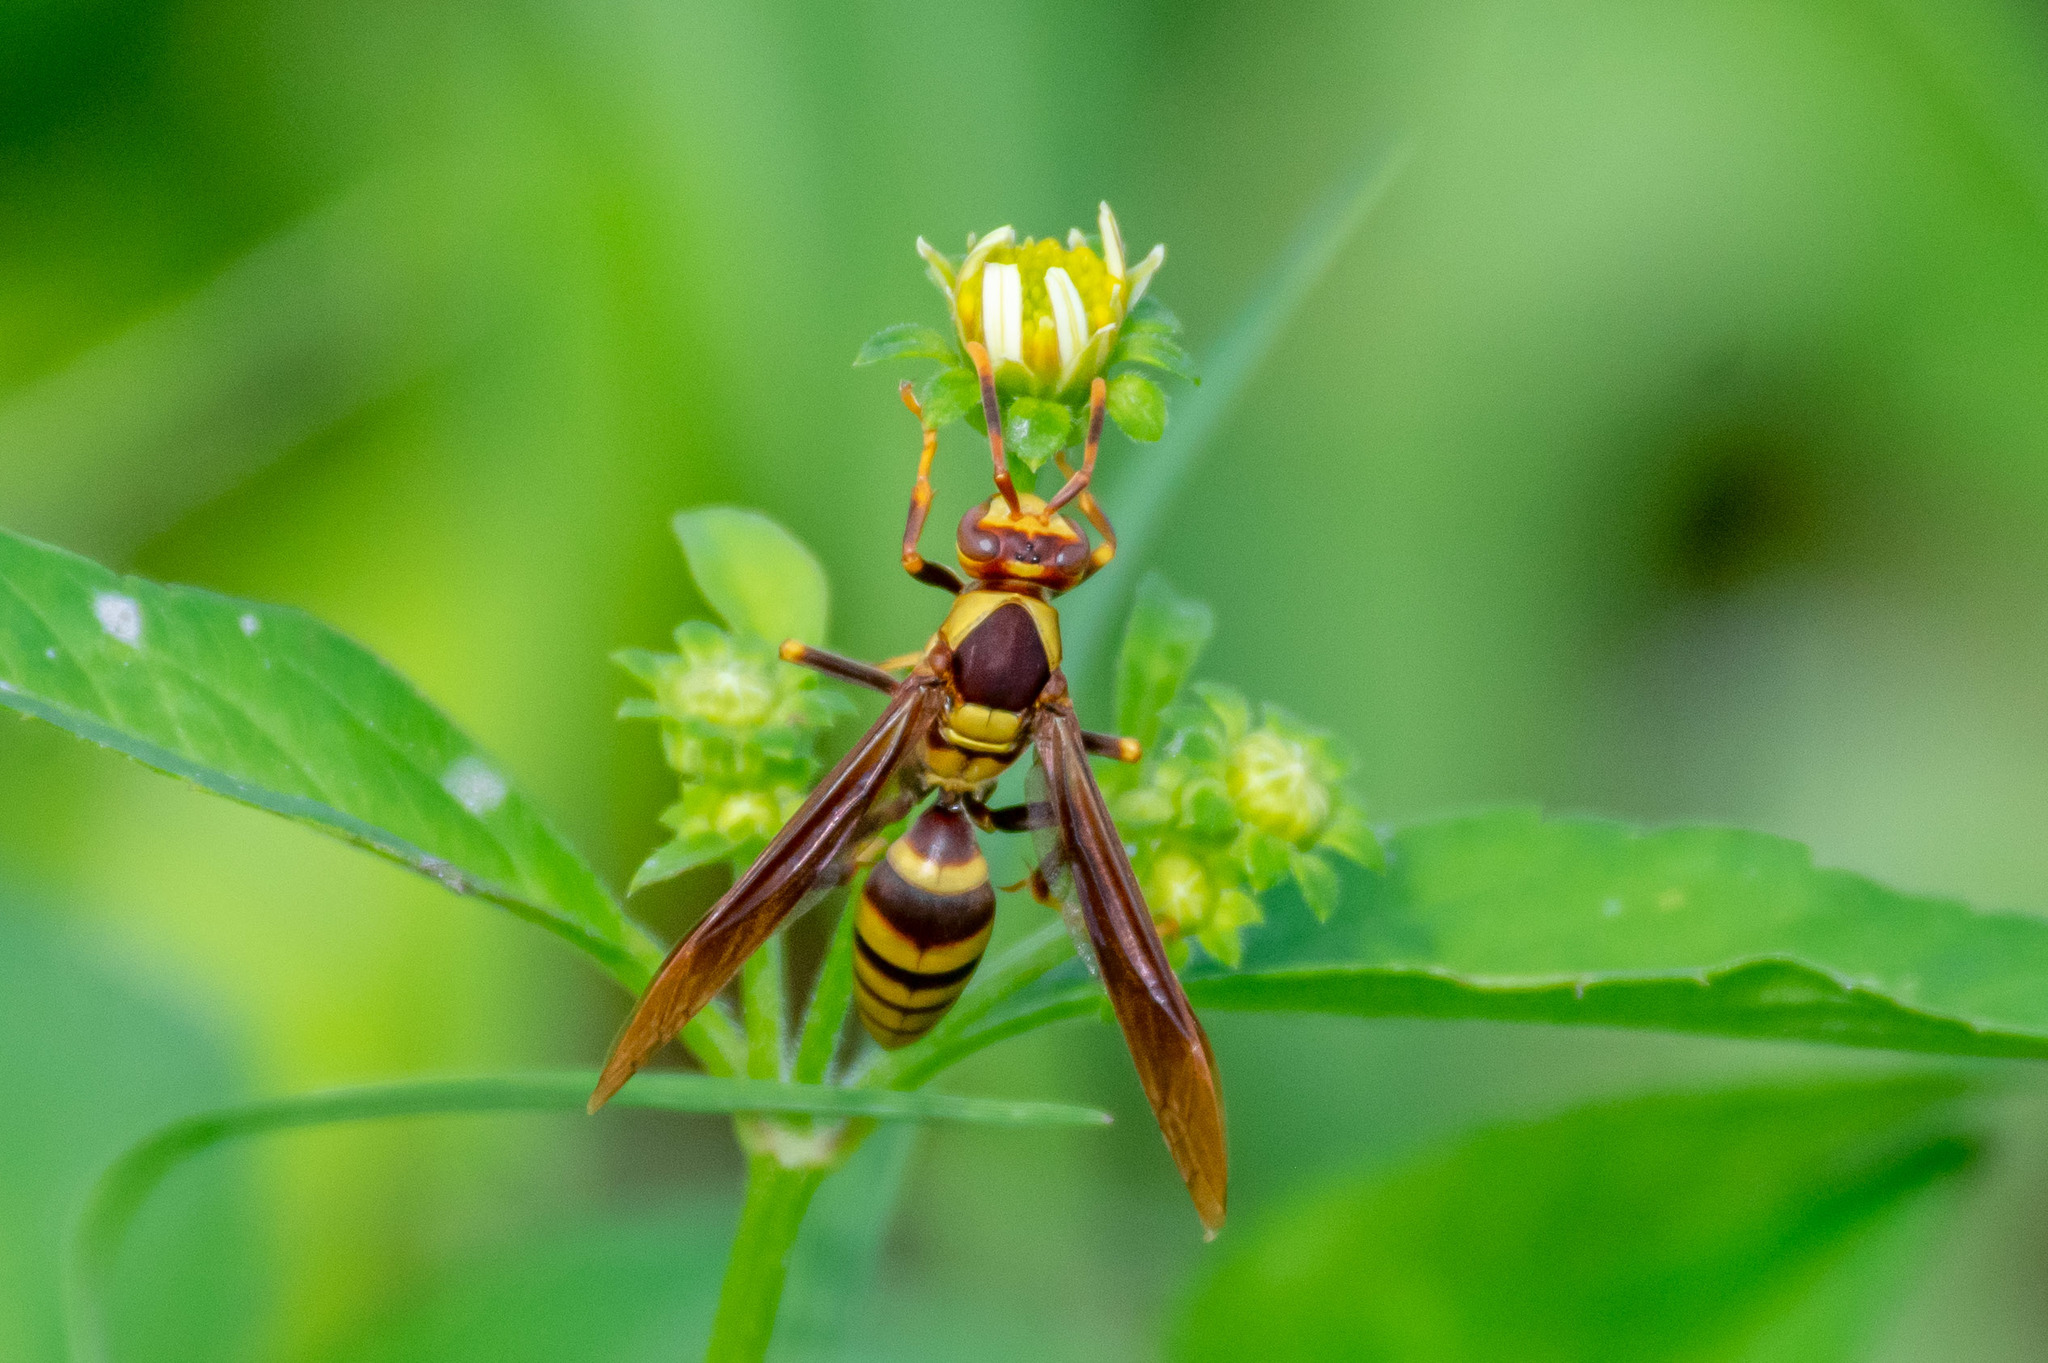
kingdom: Animalia
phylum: Arthropoda
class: Insecta
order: Hymenoptera
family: Eumenidae
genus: Polistes
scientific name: Polistes major
